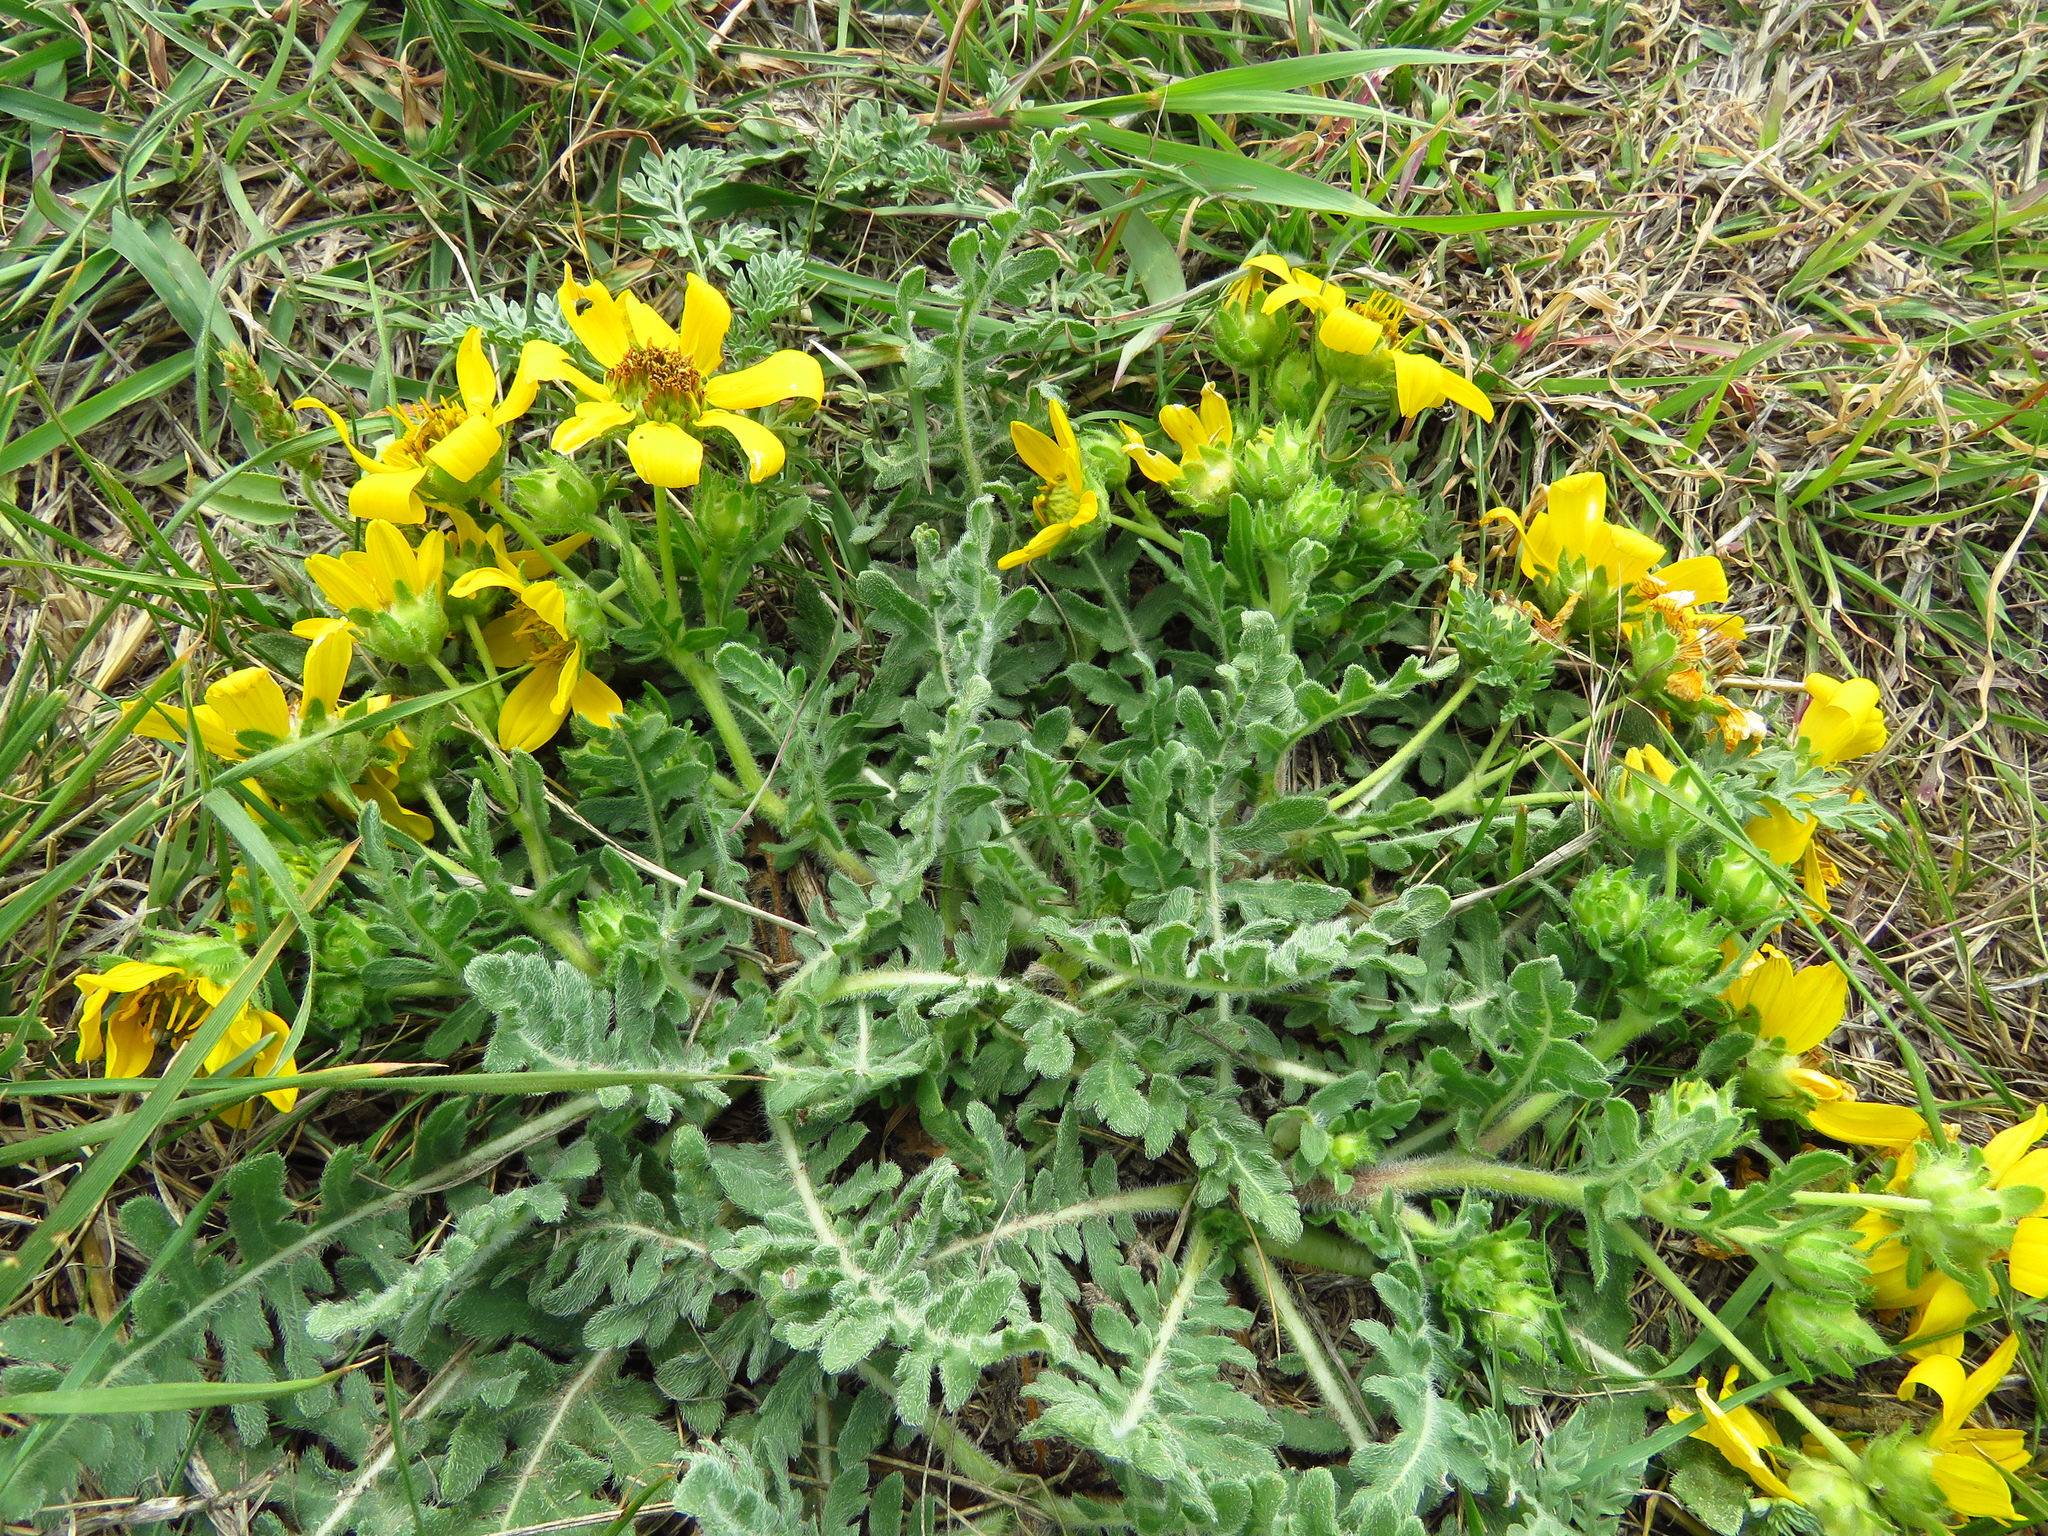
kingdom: Plantae
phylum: Tracheophyta
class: Magnoliopsida
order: Asterales
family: Asteraceae
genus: Engelmannia
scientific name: Engelmannia peristenia
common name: Engelmann's daisy
